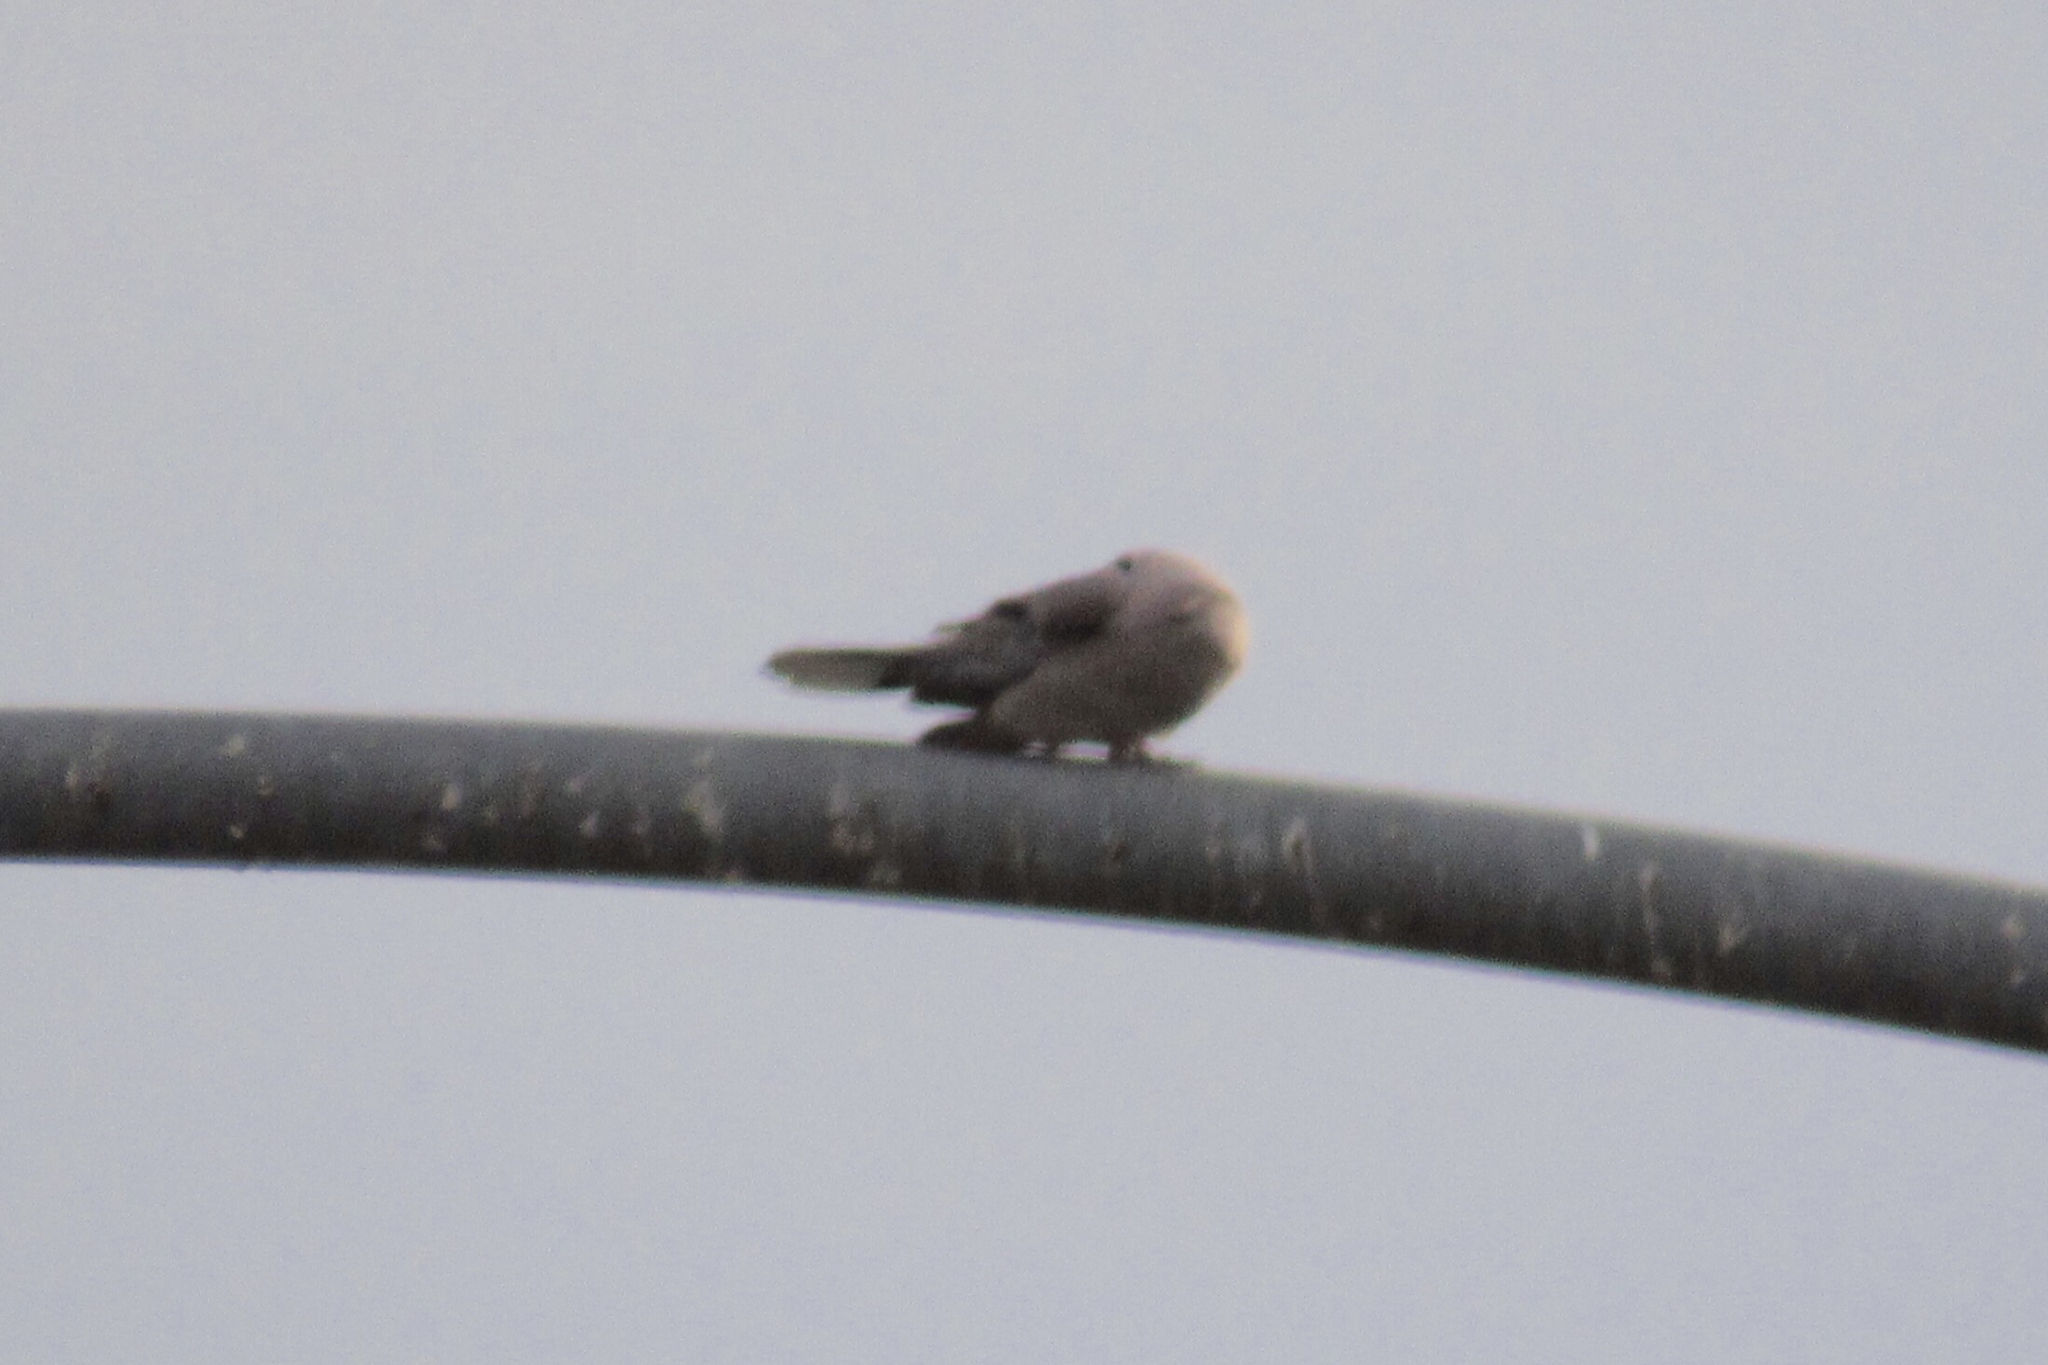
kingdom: Animalia
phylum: Chordata
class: Aves
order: Columbiformes
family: Columbidae
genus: Streptopelia
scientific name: Streptopelia decaocto
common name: Eurasian collared dove
